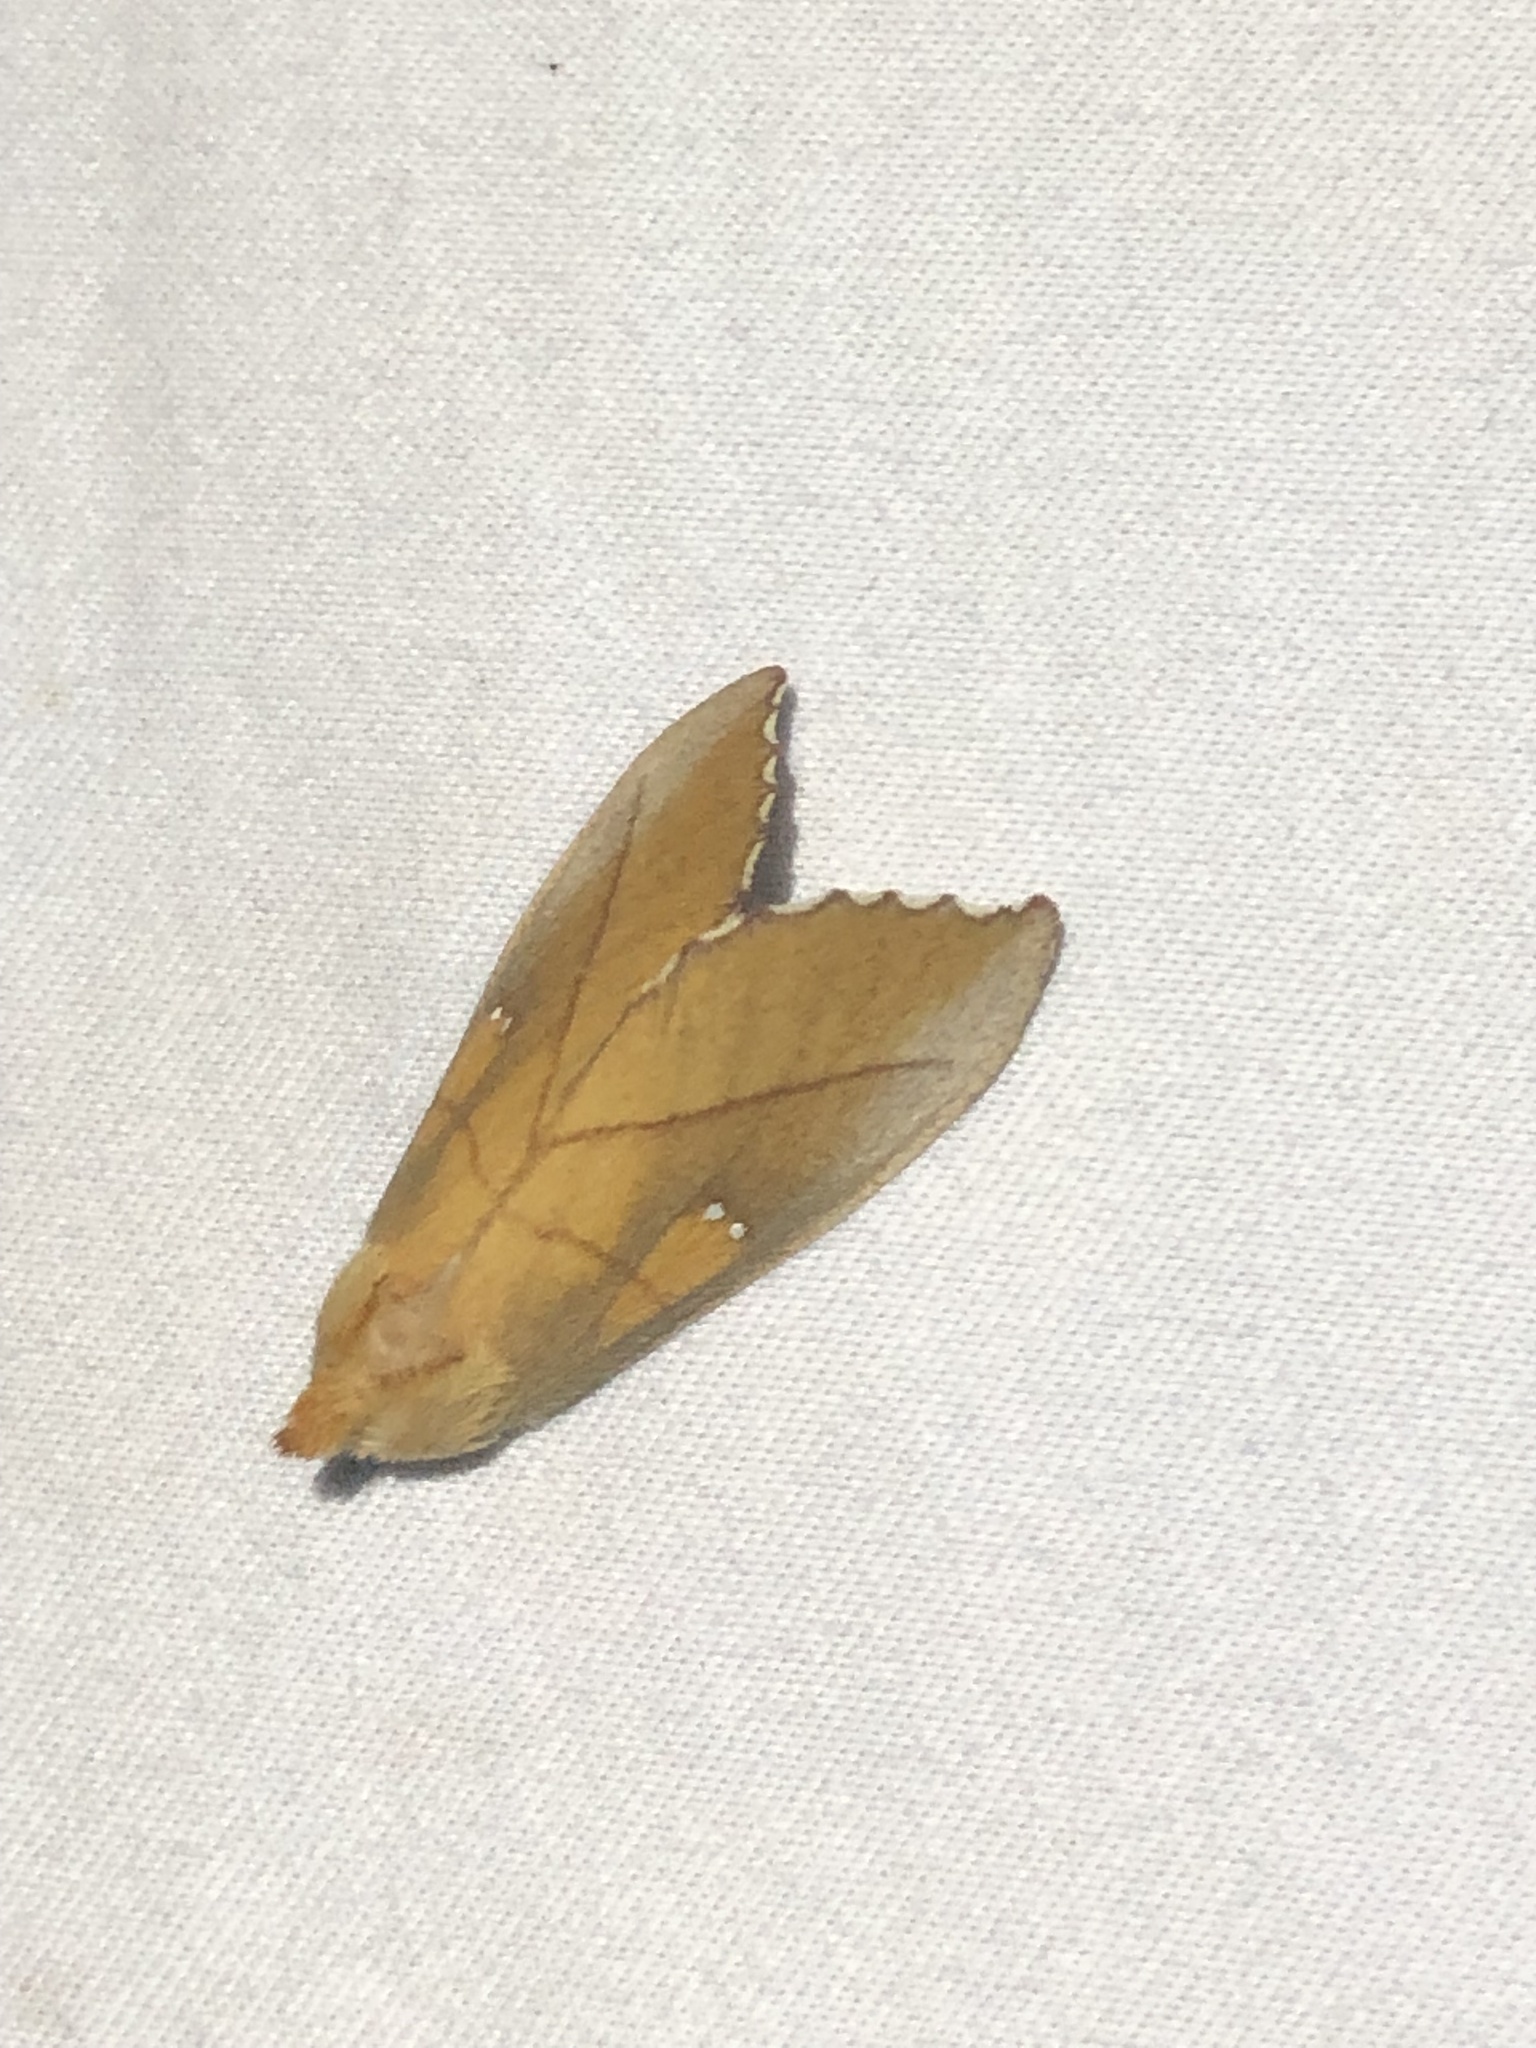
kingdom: Animalia
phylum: Arthropoda
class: Insecta
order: Lepidoptera
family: Notodontidae
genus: Nadata
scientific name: Nadata gibbosa
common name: White-dotted prominent
